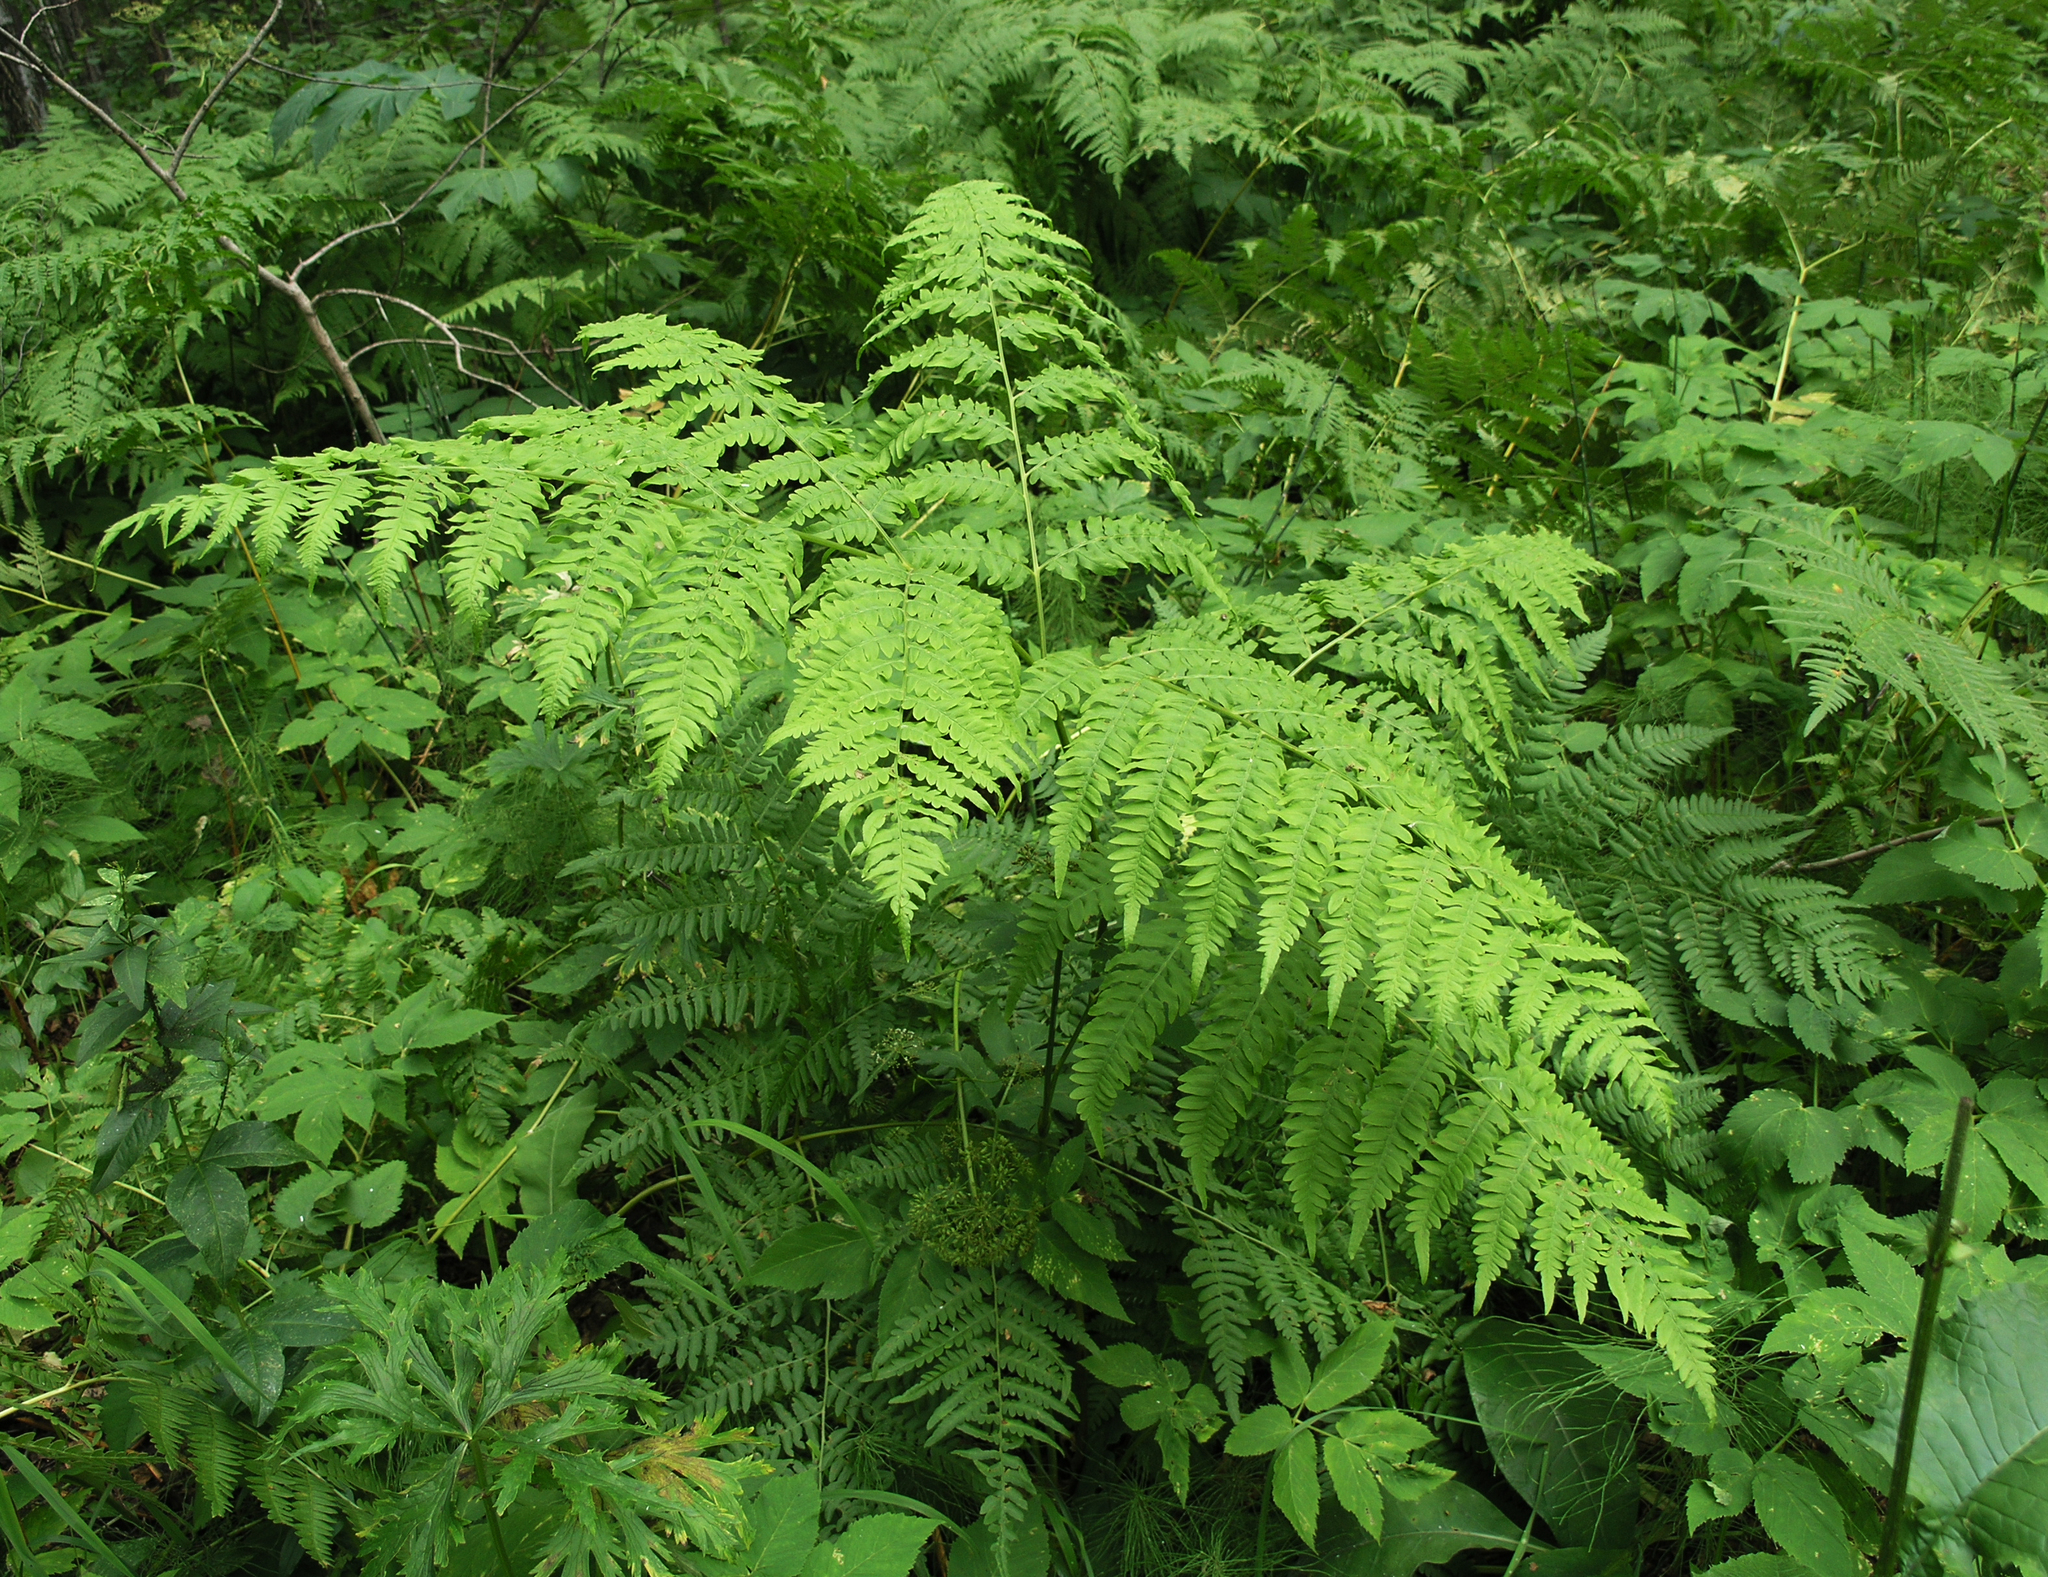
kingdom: Plantae
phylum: Tracheophyta
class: Polypodiopsida
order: Polypodiales
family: Dennstaedtiaceae
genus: Pteridium
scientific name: Pteridium aquilinum
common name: Bracken
